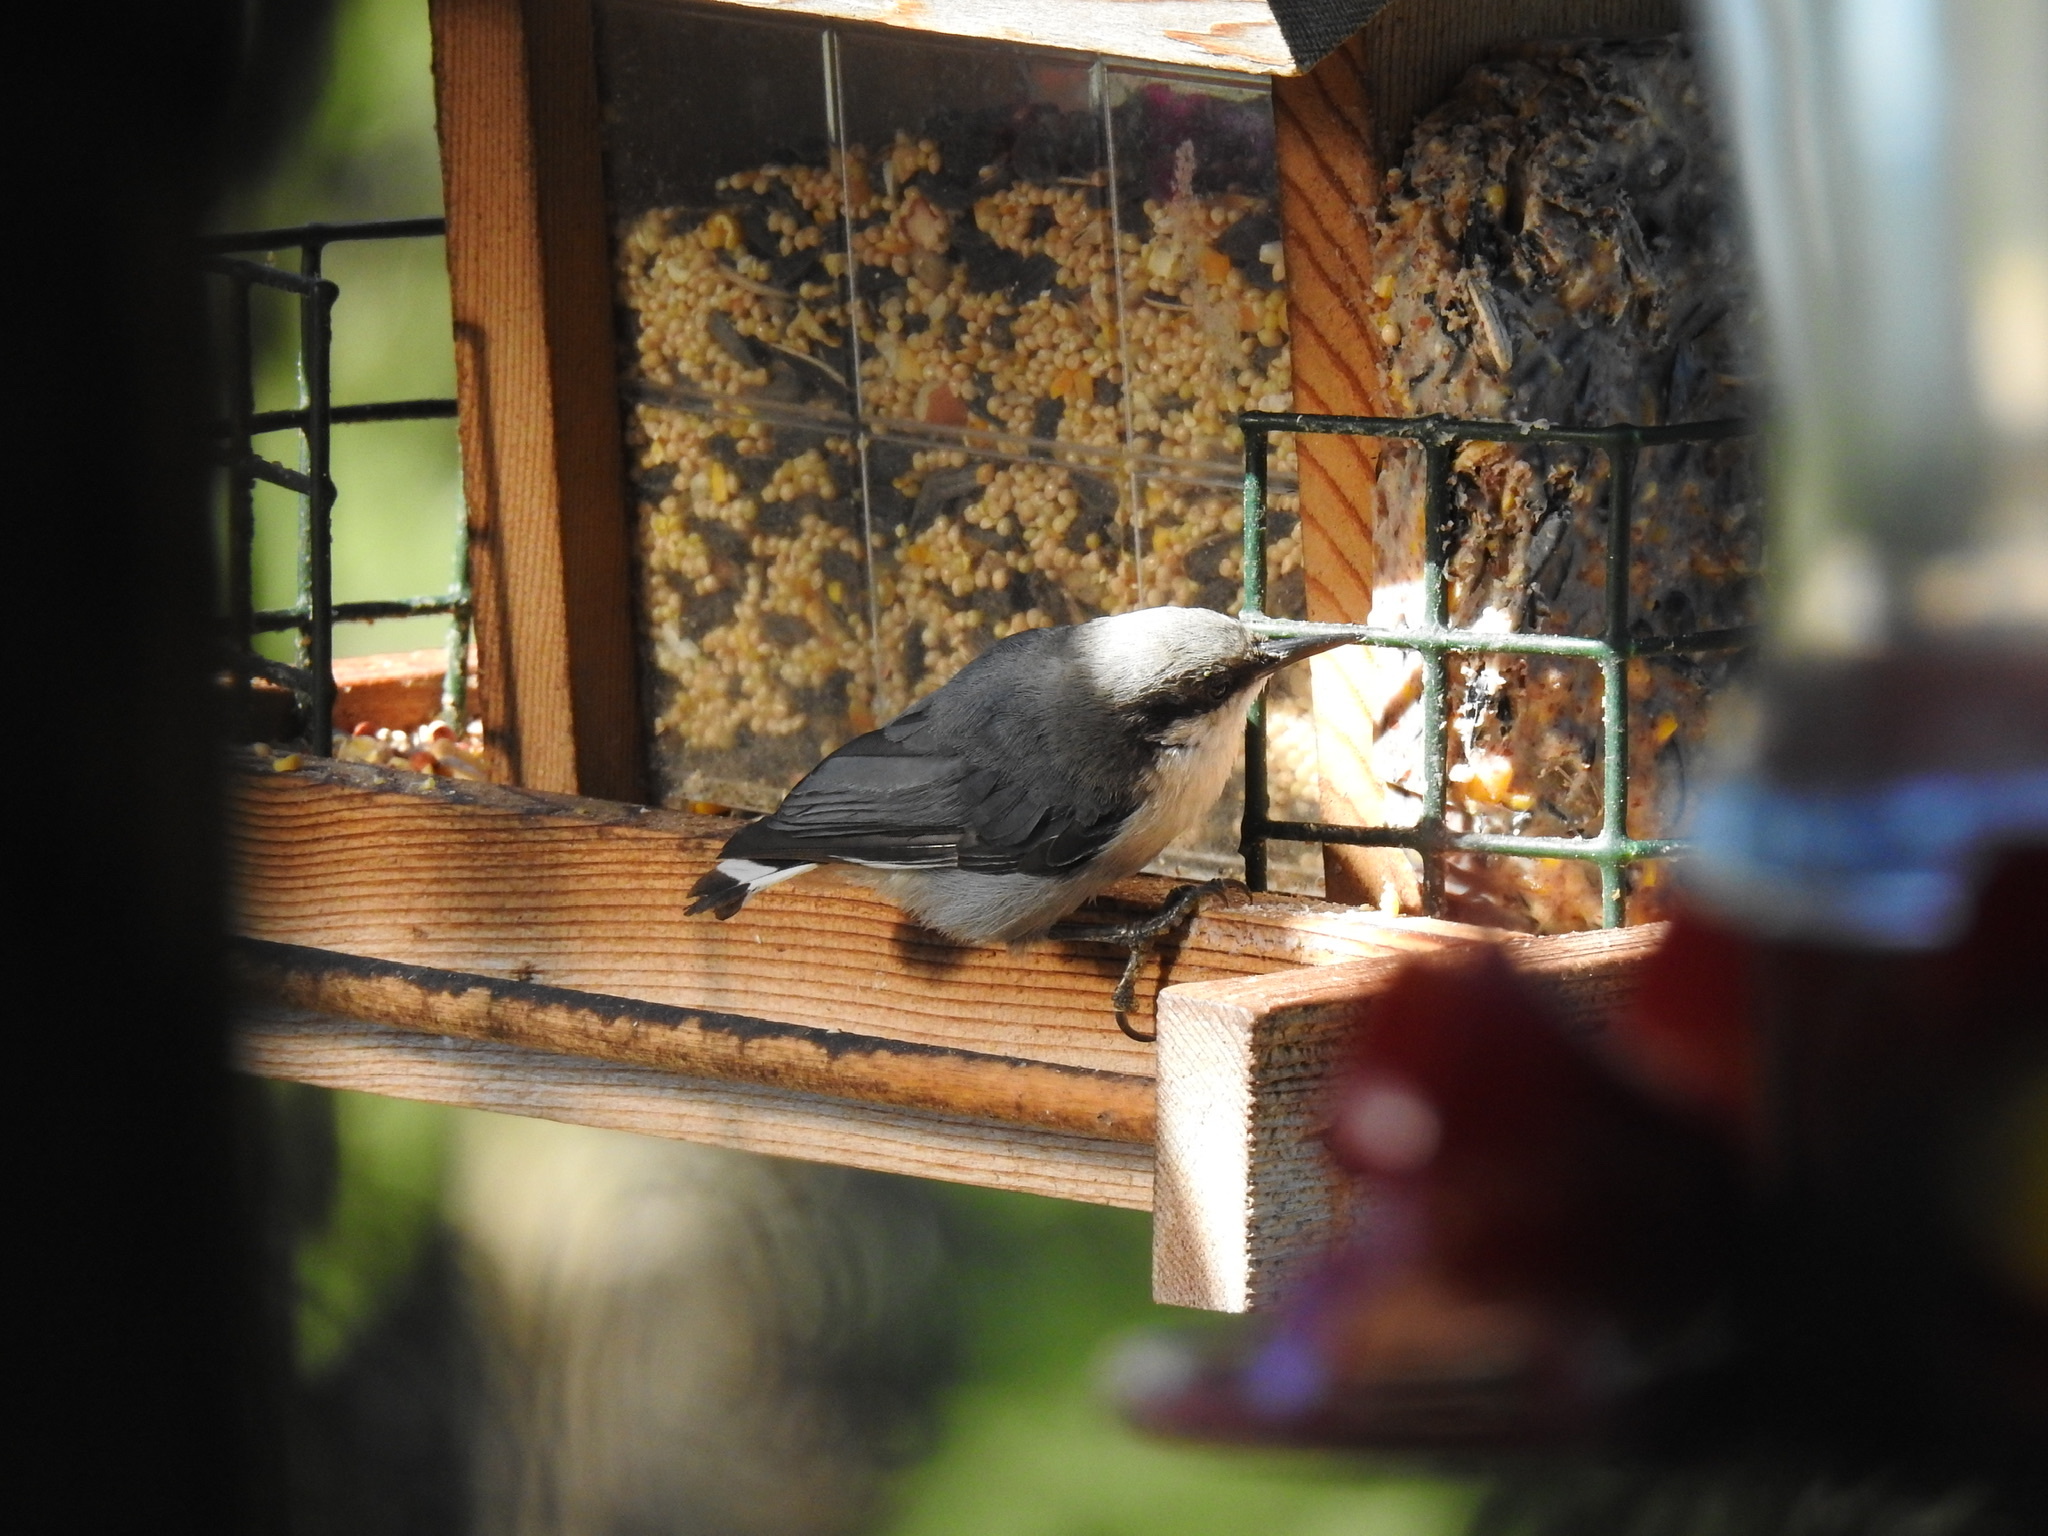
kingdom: Animalia
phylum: Chordata
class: Aves
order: Passeriformes
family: Sittidae
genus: Sitta
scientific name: Sitta pygmaea
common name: Pygmy nuthatch
